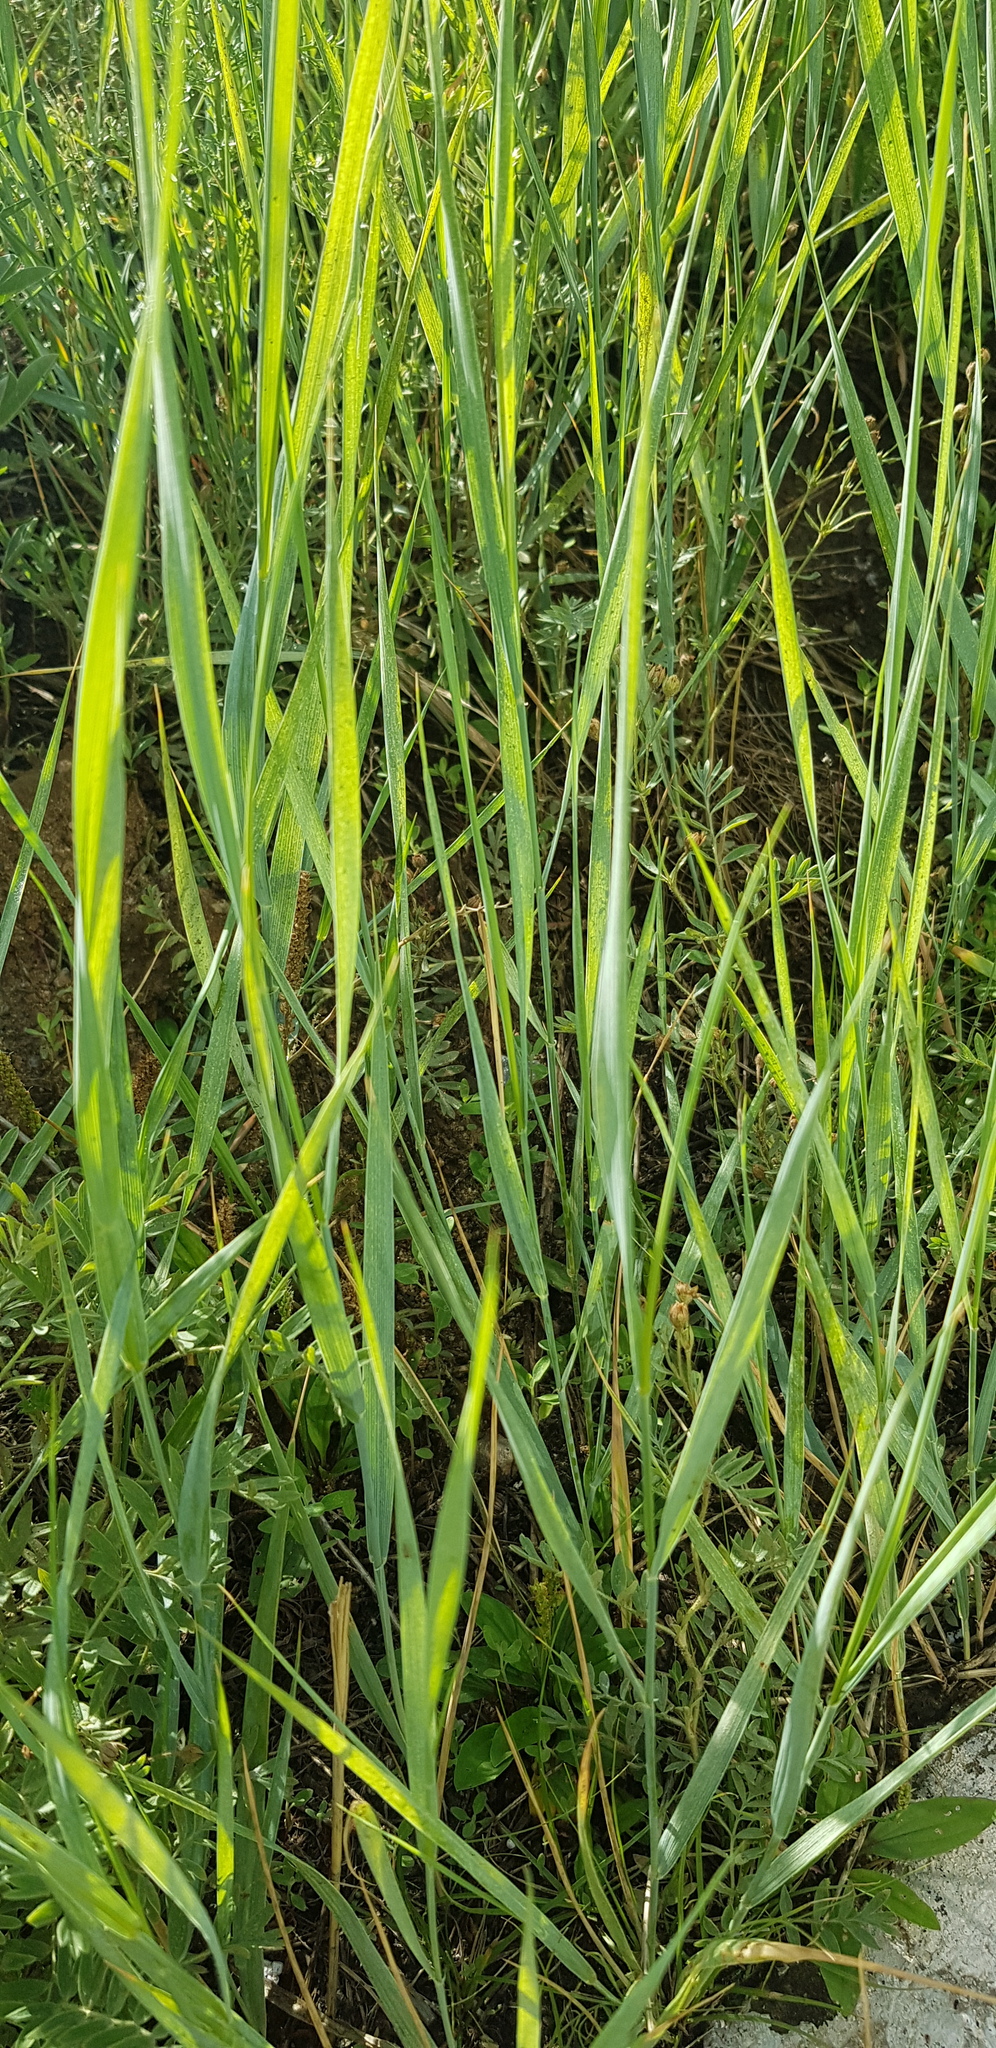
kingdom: Plantae
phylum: Tracheophyta
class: Liliopsida
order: Poales
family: Poaceae
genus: Leymus
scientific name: Leymus chinensis
